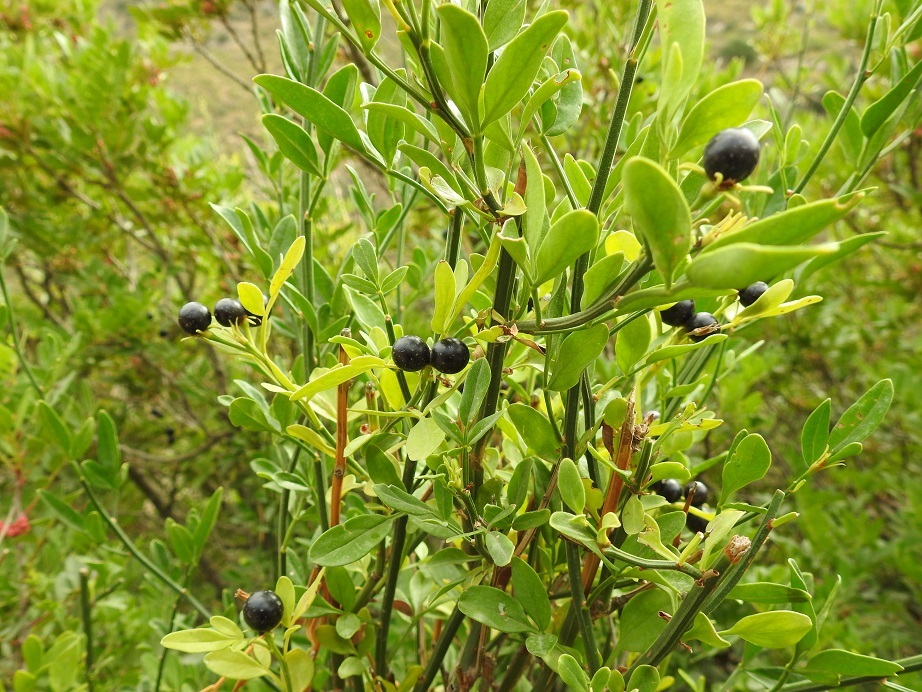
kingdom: Plantae
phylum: Tracheophyta
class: Magnoliopsida
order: Lamiales
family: Oleaceae
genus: Chrysojasminum
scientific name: Chrysojasminum fruticans
